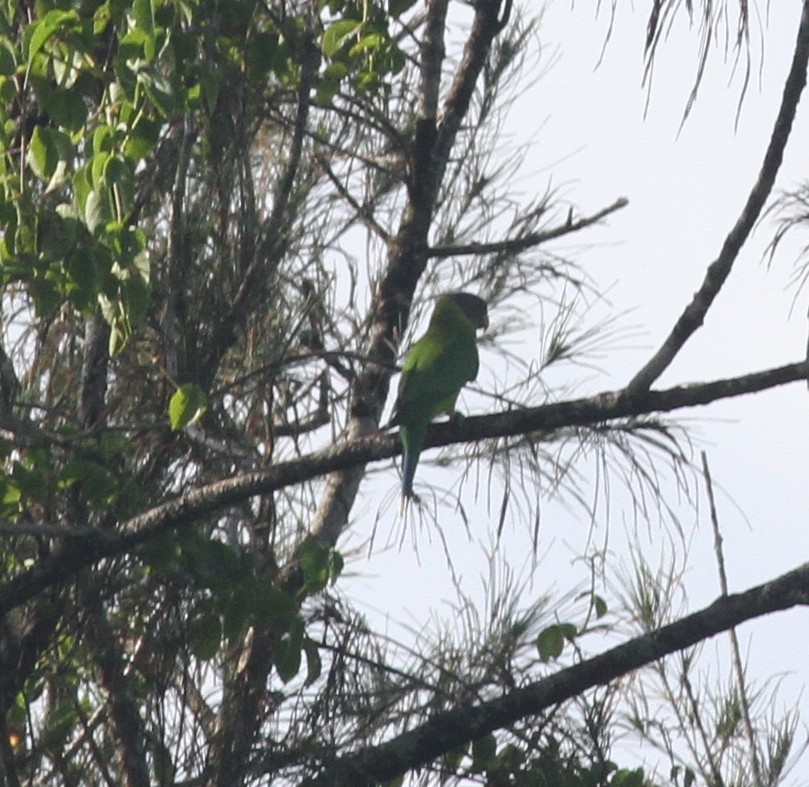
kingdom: Animalia
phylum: Chordata
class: Aves
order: Psittaciformes
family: Psittacidae
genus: Psittacula
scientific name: Psittacula cyanocephala
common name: Plum-headed parakeet
